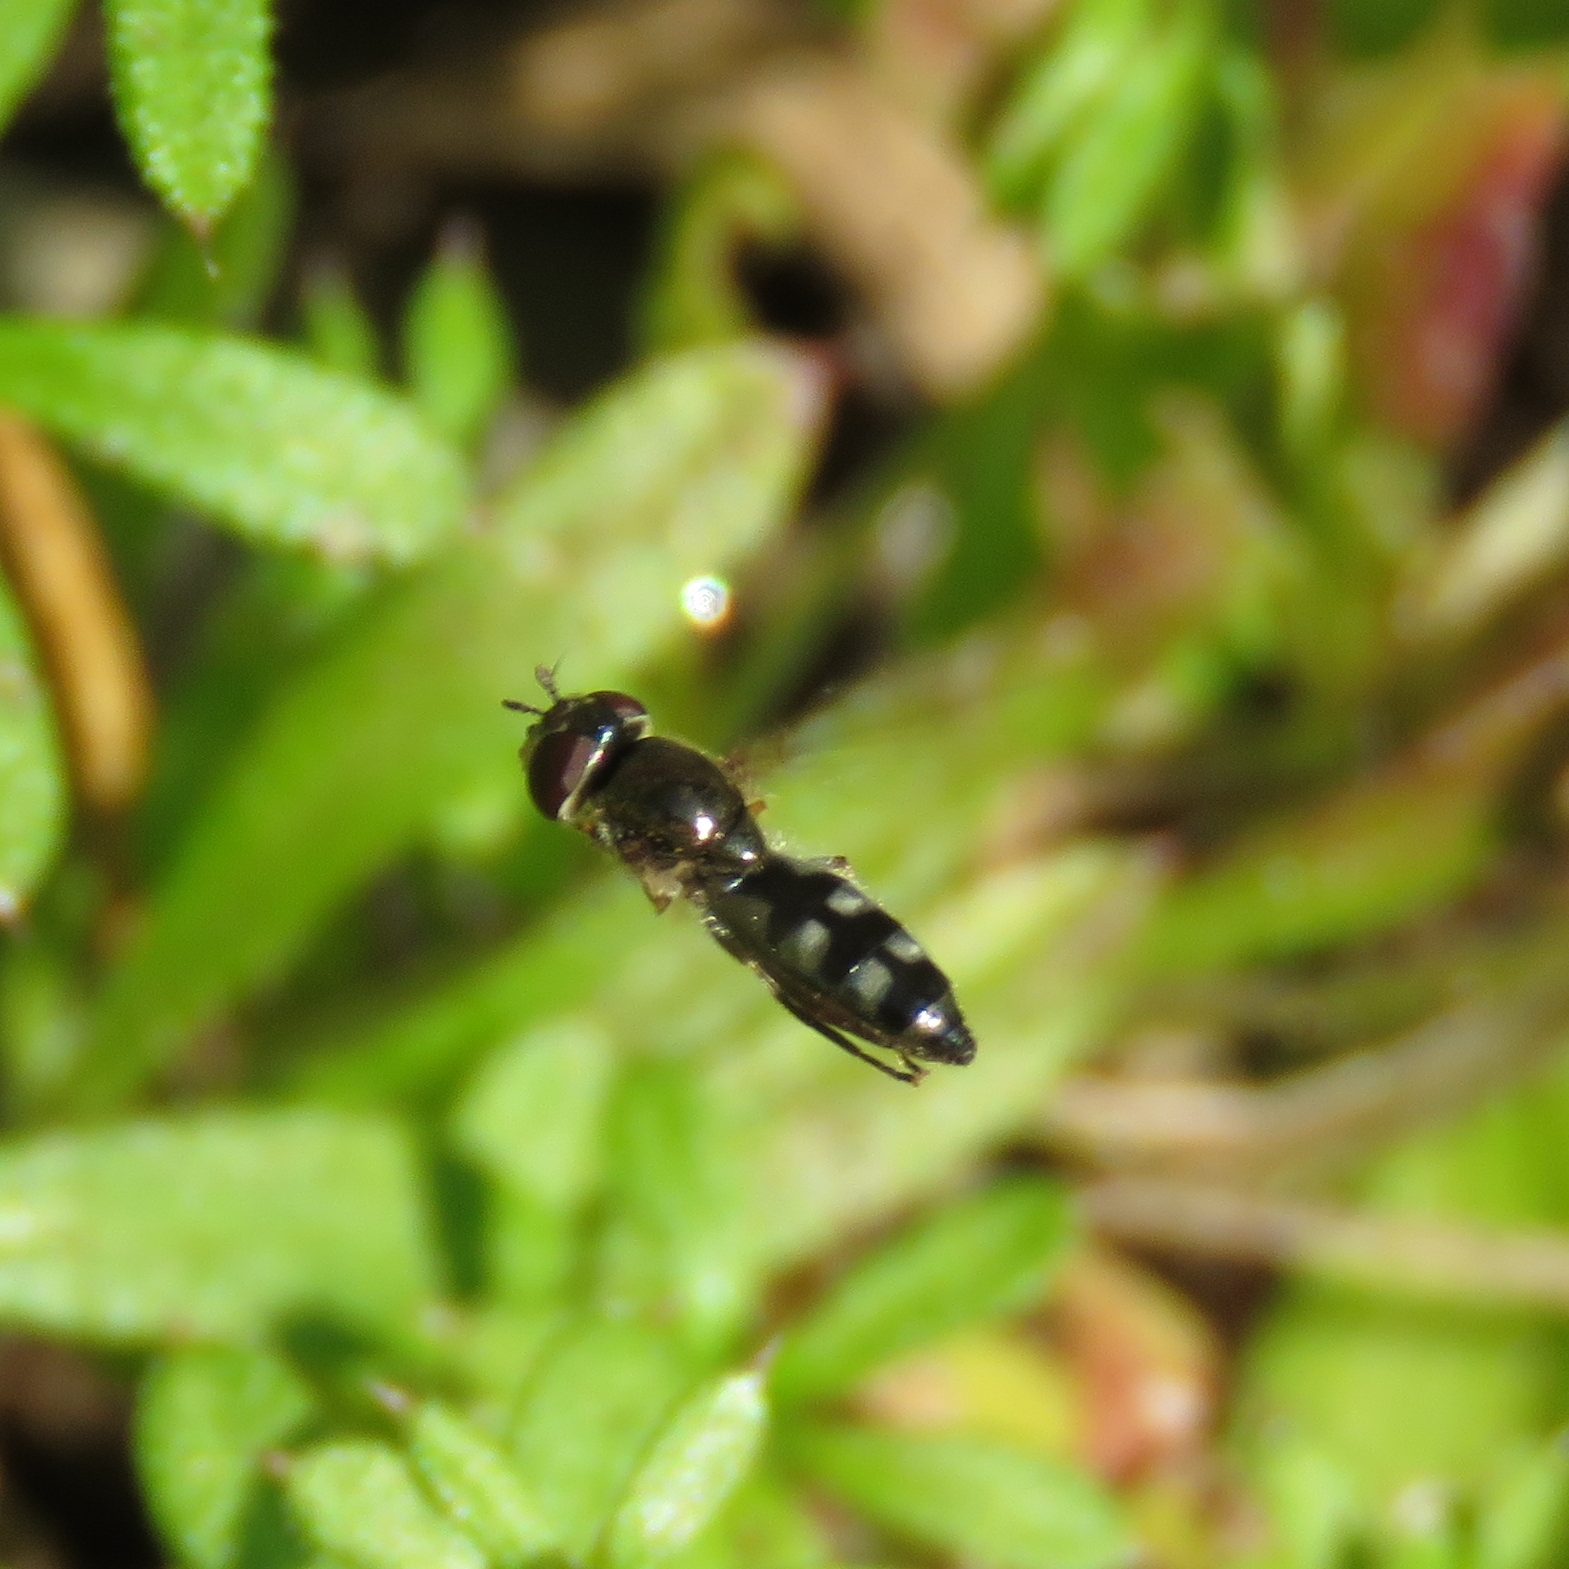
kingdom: Animalia
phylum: Arthropoda
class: Insecta
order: Diptera
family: Syrphidae
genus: Platycheirus
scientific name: Platycheirus albimanus
